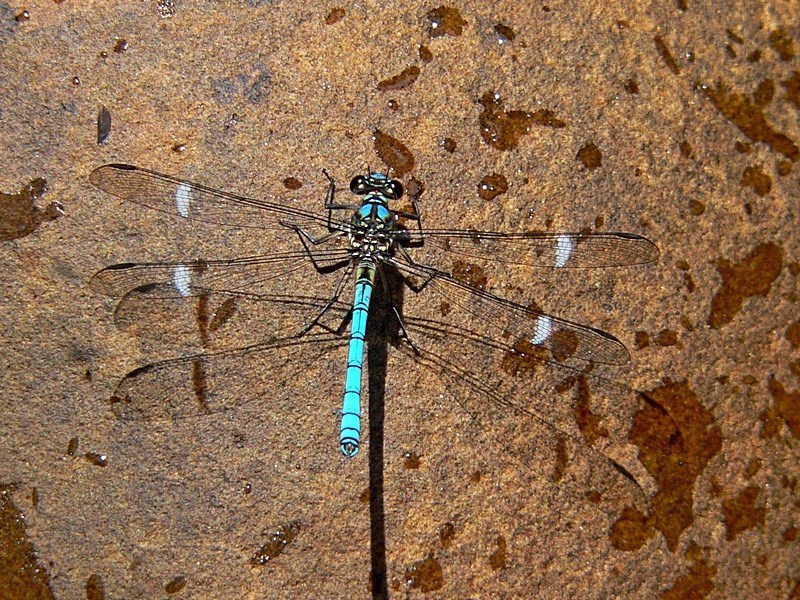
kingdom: Animalia
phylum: Arthropoda
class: Insecta
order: Odonata
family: Lestoideidae
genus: Diphlebia
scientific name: Diphlebia lestoides
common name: Whitewater rockmaster
